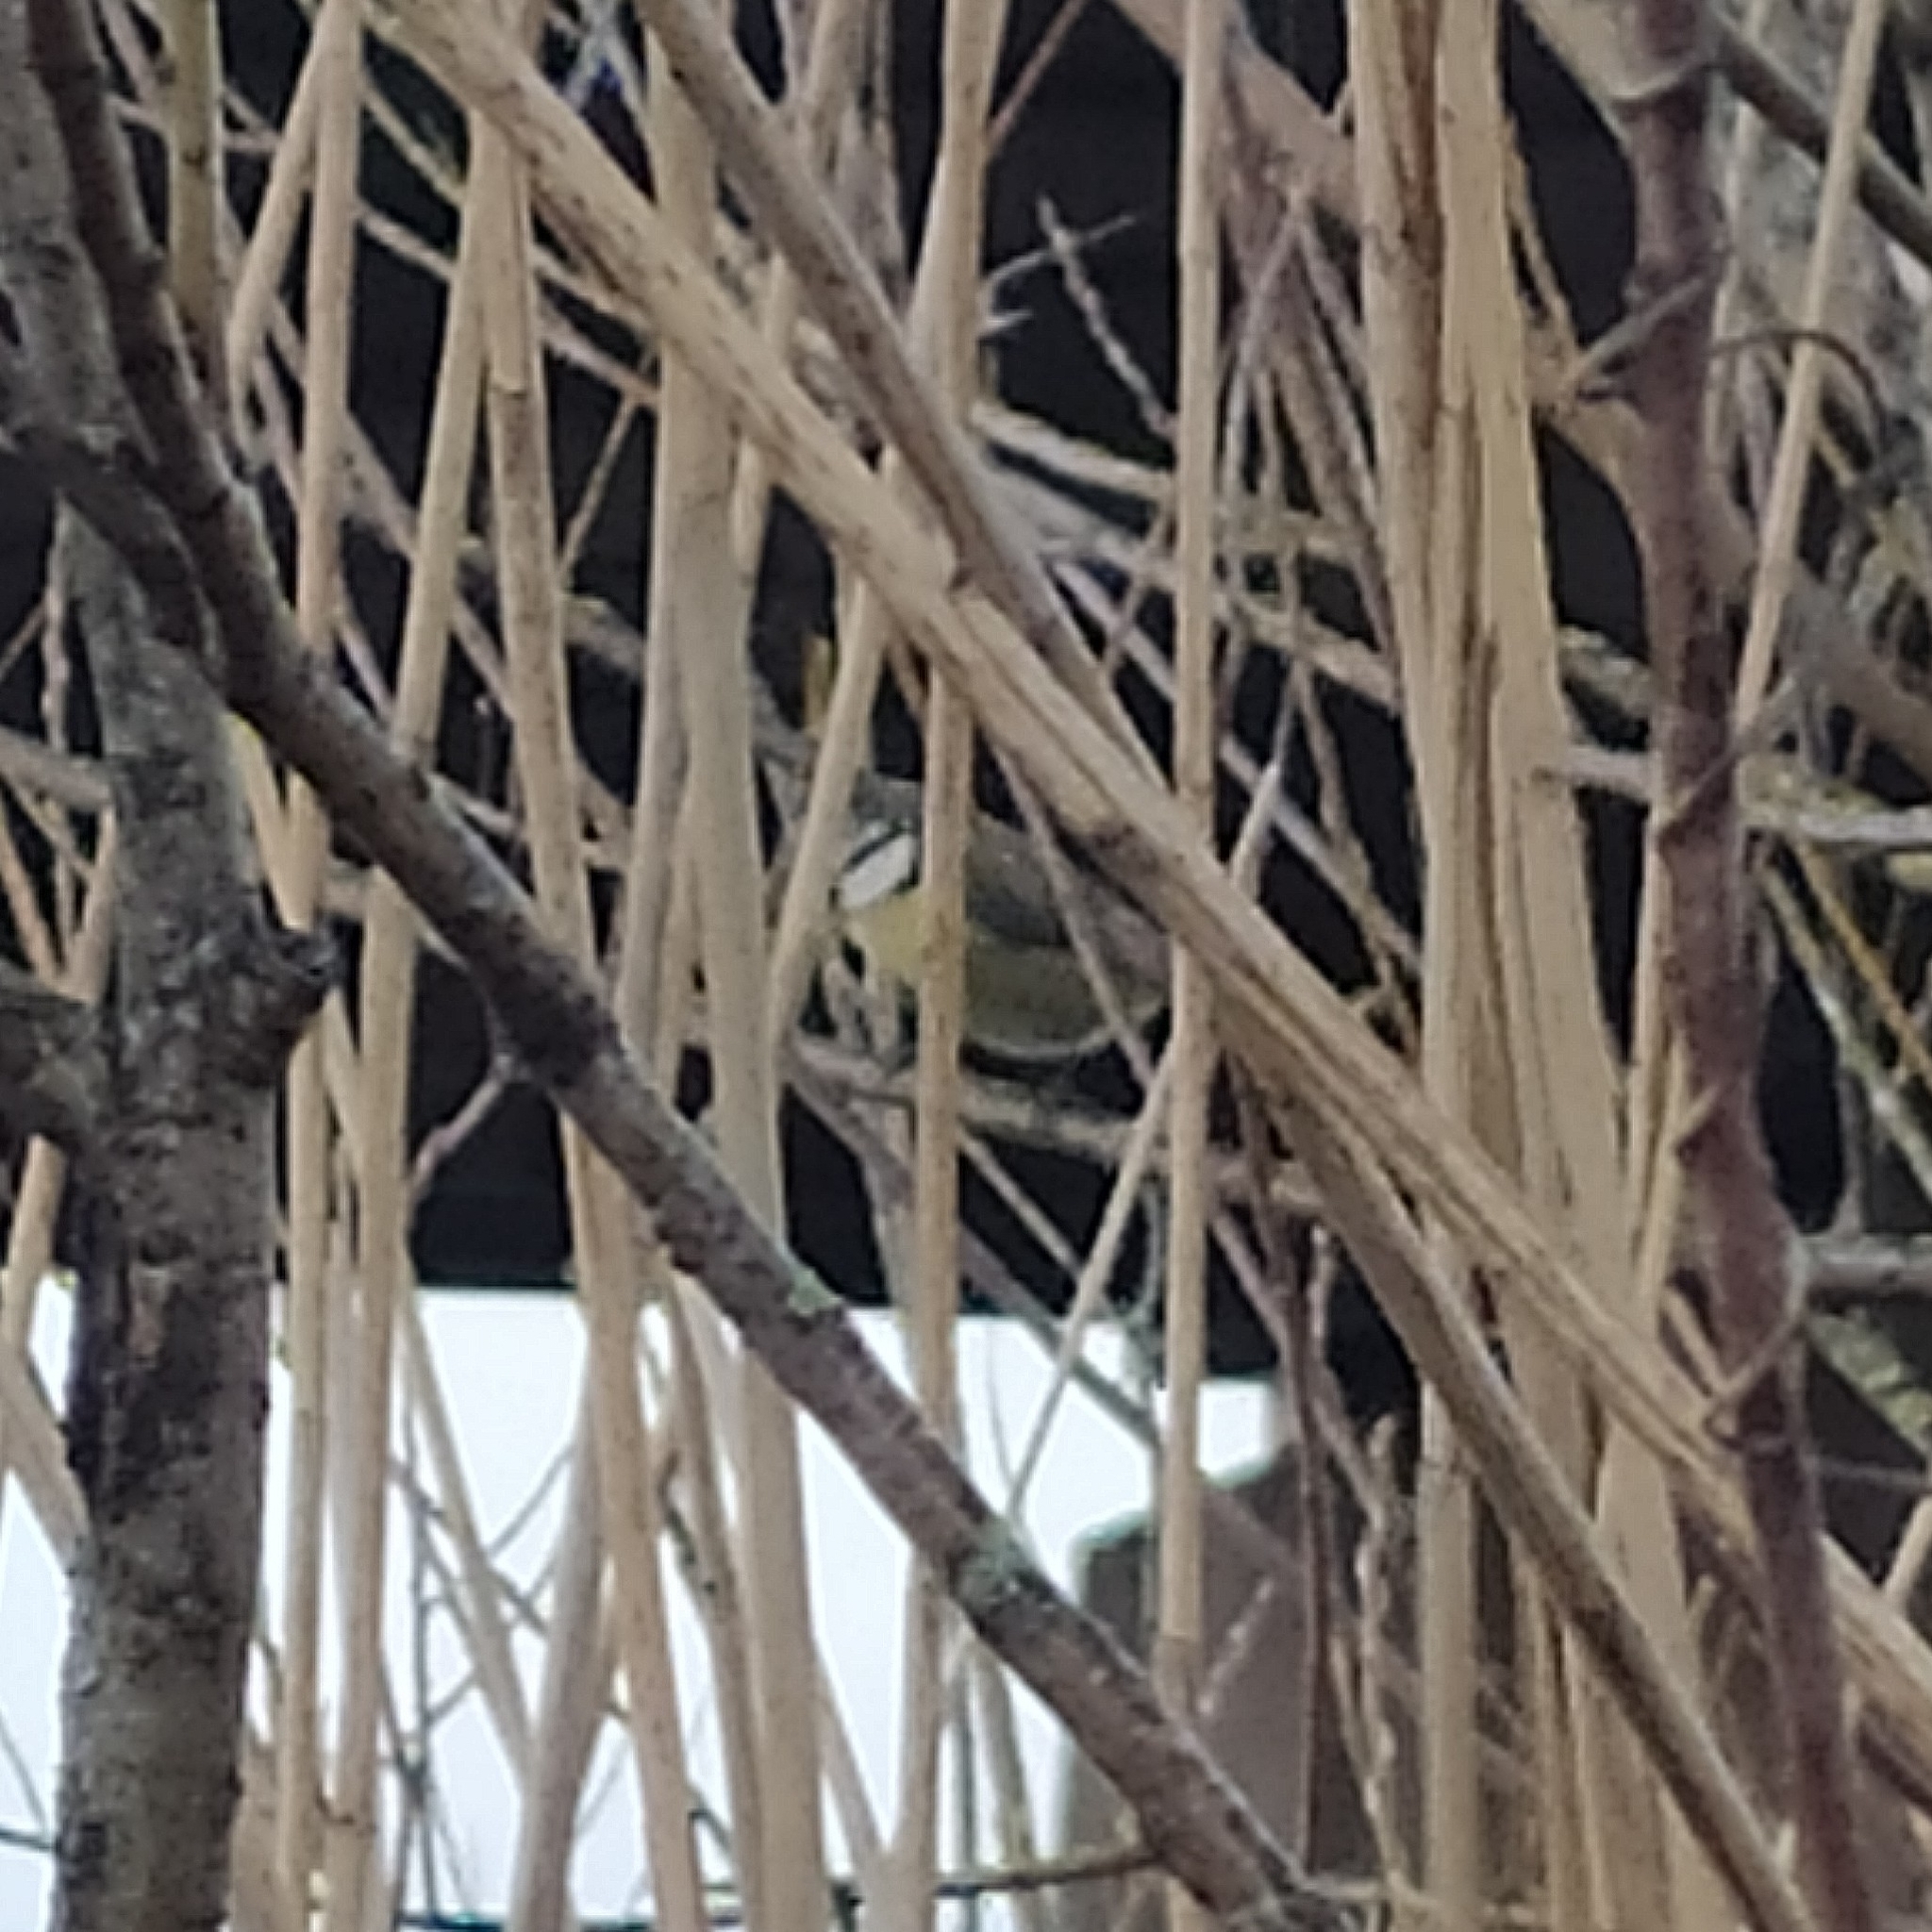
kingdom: Animalia
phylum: Chordata
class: Aves
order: Passeriformes
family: Paridae
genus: Cyanistes
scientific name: Cyanistes caeruleus
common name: Eurasian blue tit
